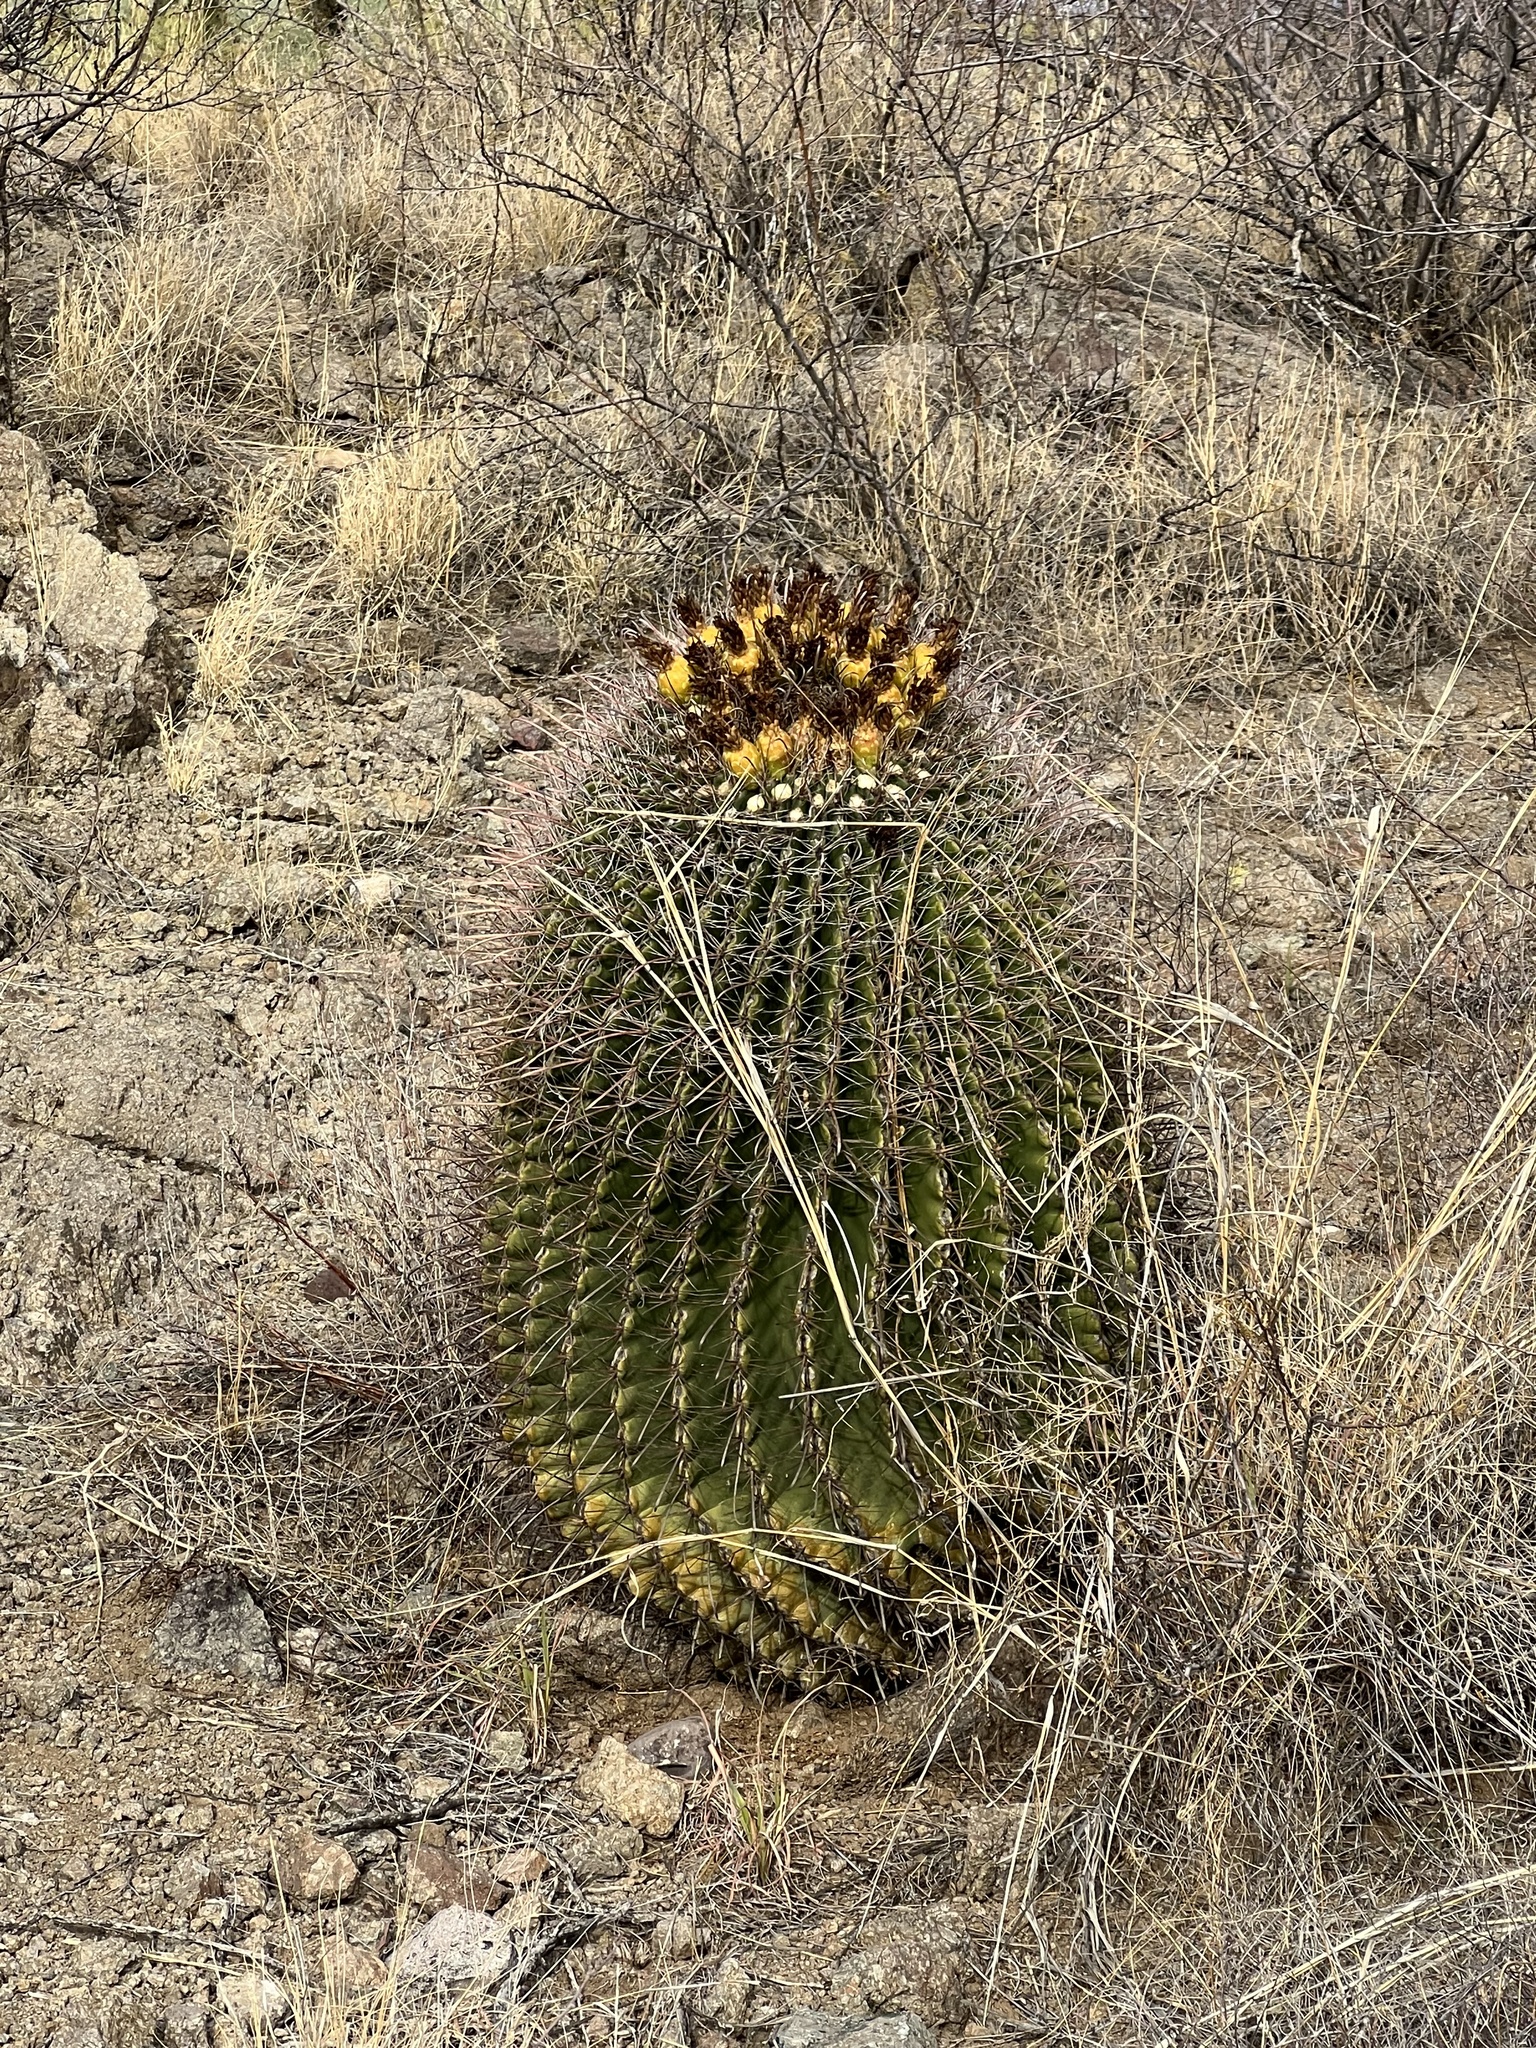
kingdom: Plantae
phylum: Tracheophyta
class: Magnoliopsida
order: Caryophyllales
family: Cactaceae
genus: Ferocactus
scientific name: Ferocactus wislizeni
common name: Candy barrel cactus
